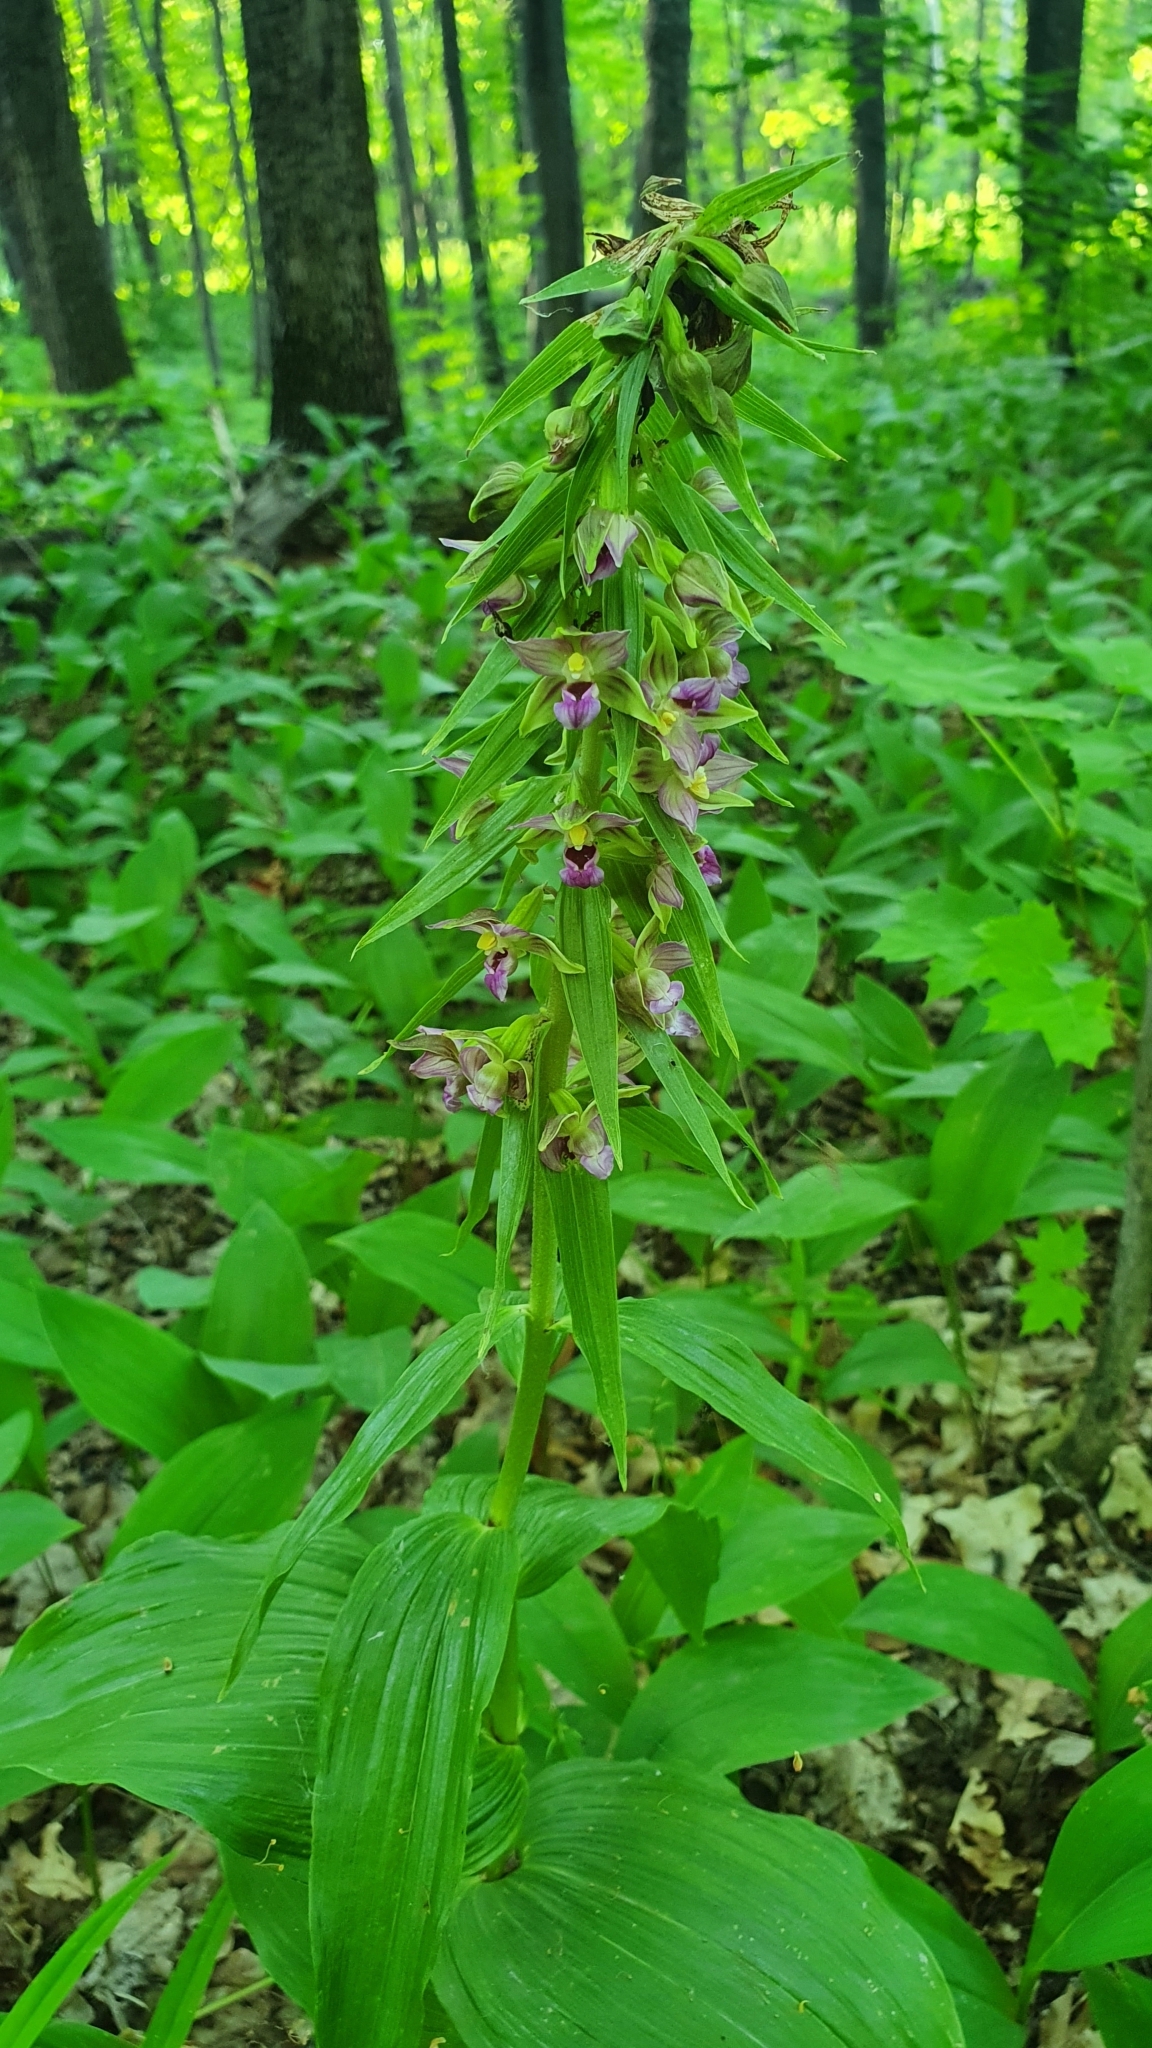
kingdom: Plantae
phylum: Tracheophyta
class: Liliopsida
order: Asparagales
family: Orchidaceae
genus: Epipactis
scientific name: Epipactis helleborine
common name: Broad-leaved helleborine
